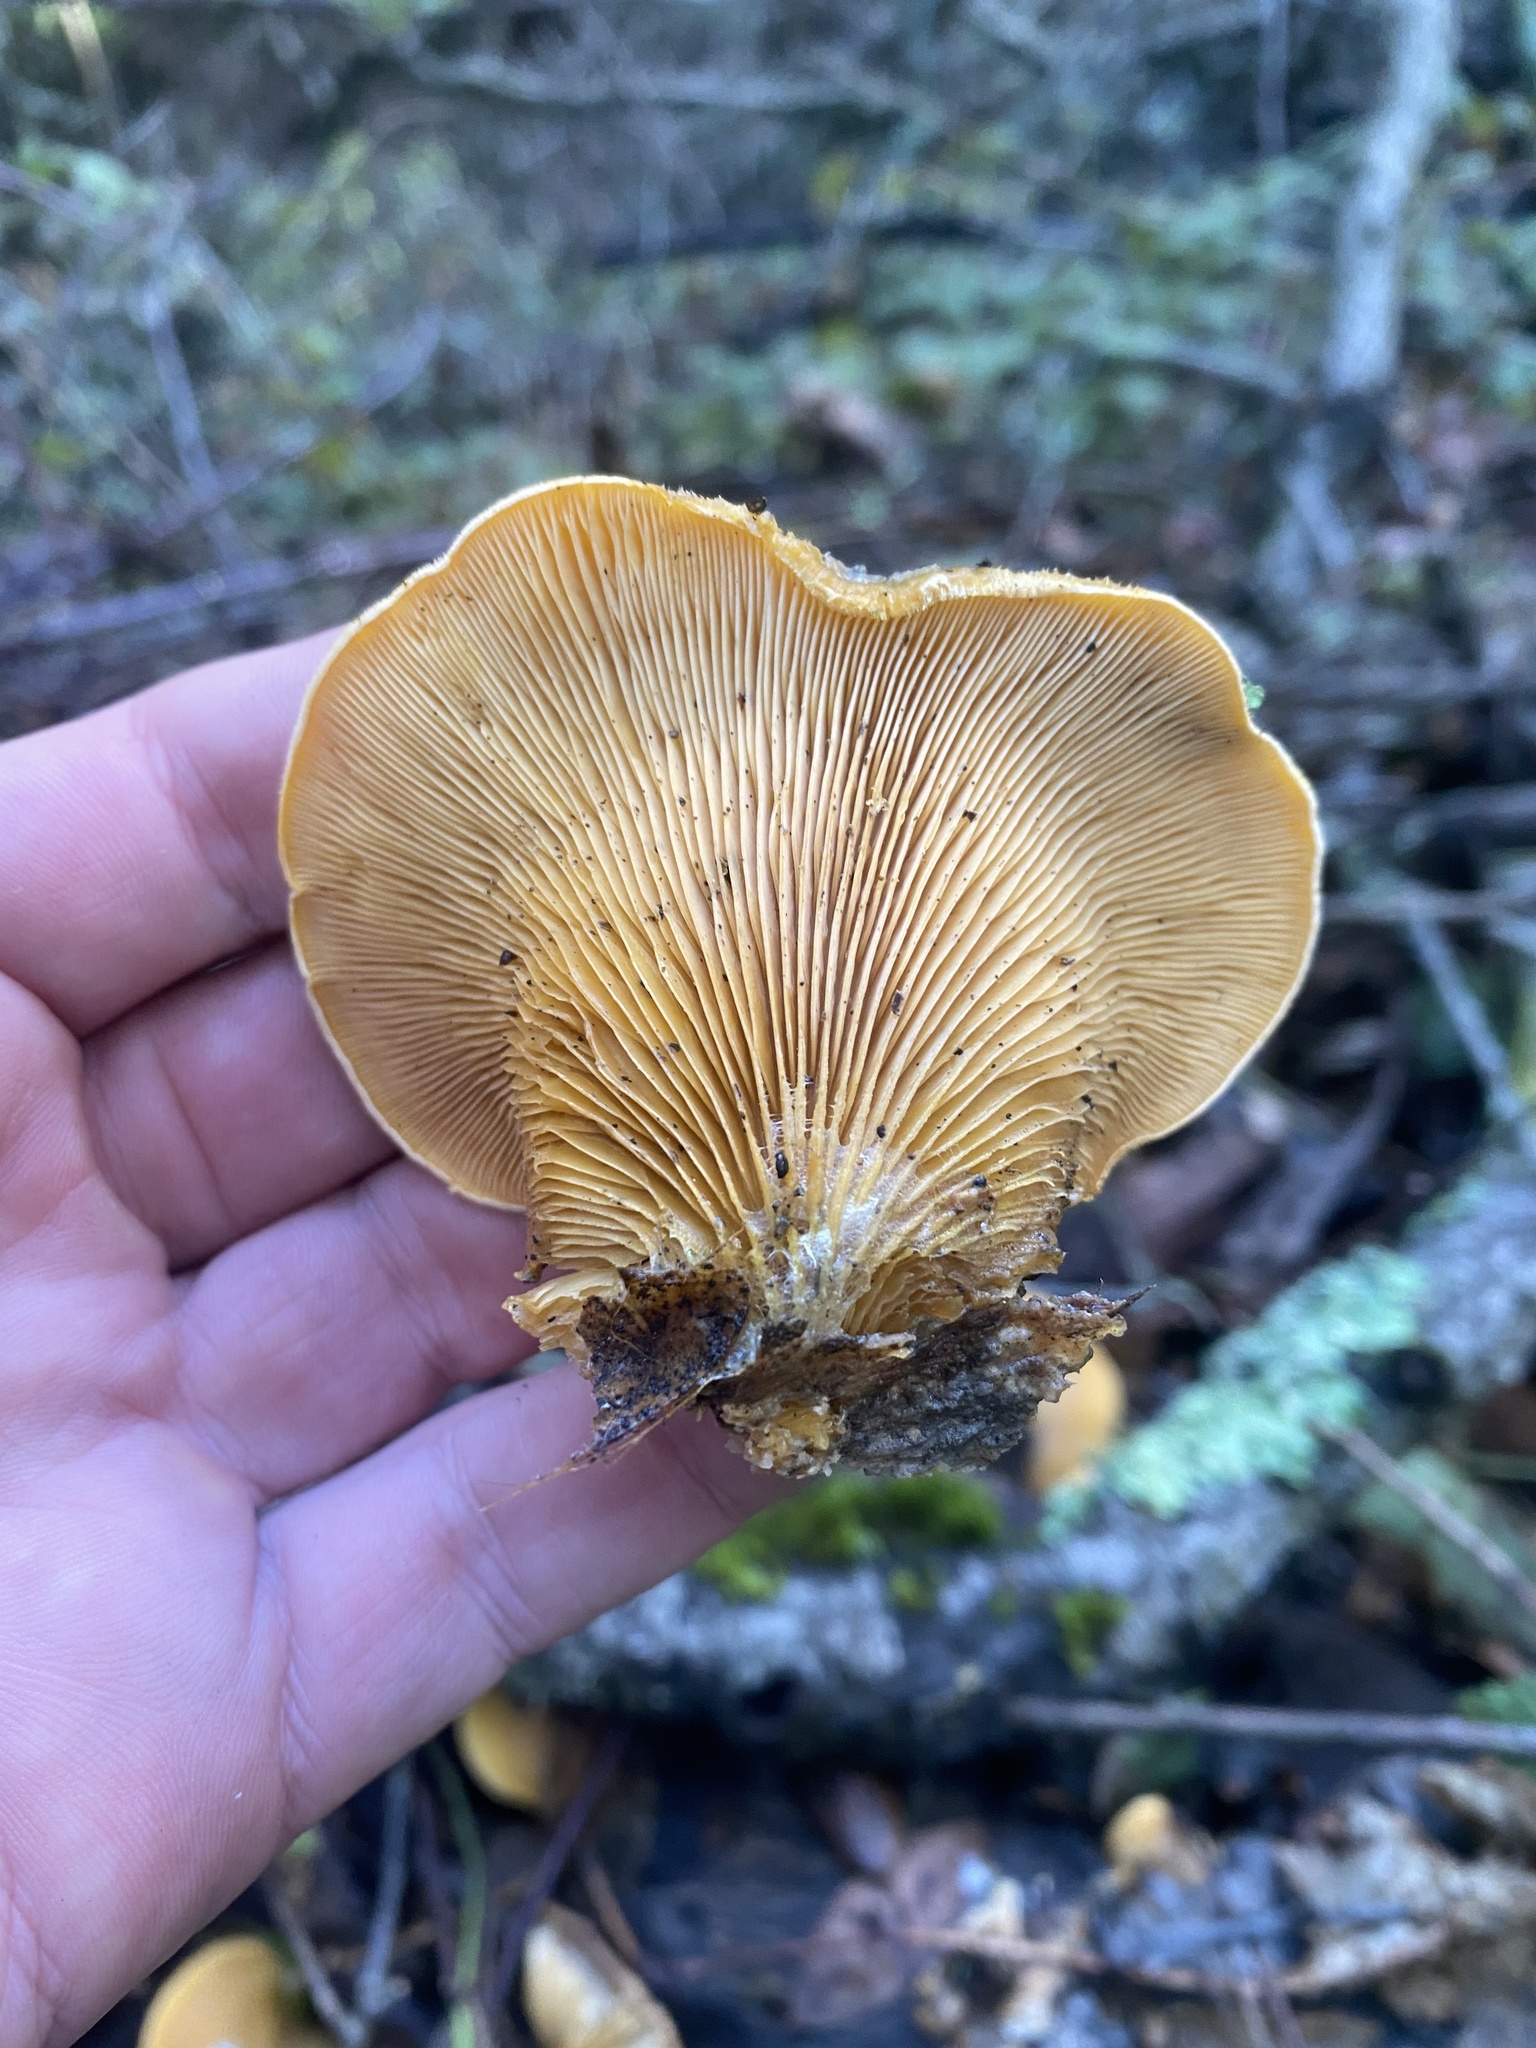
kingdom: Fungi
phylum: Basidiomycota
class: Agaricomycetes
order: Agaricales
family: Phyllotopsidaceae
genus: Phyllotopsis
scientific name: Phyllotopsis nidulans
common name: Orange mock oyster
